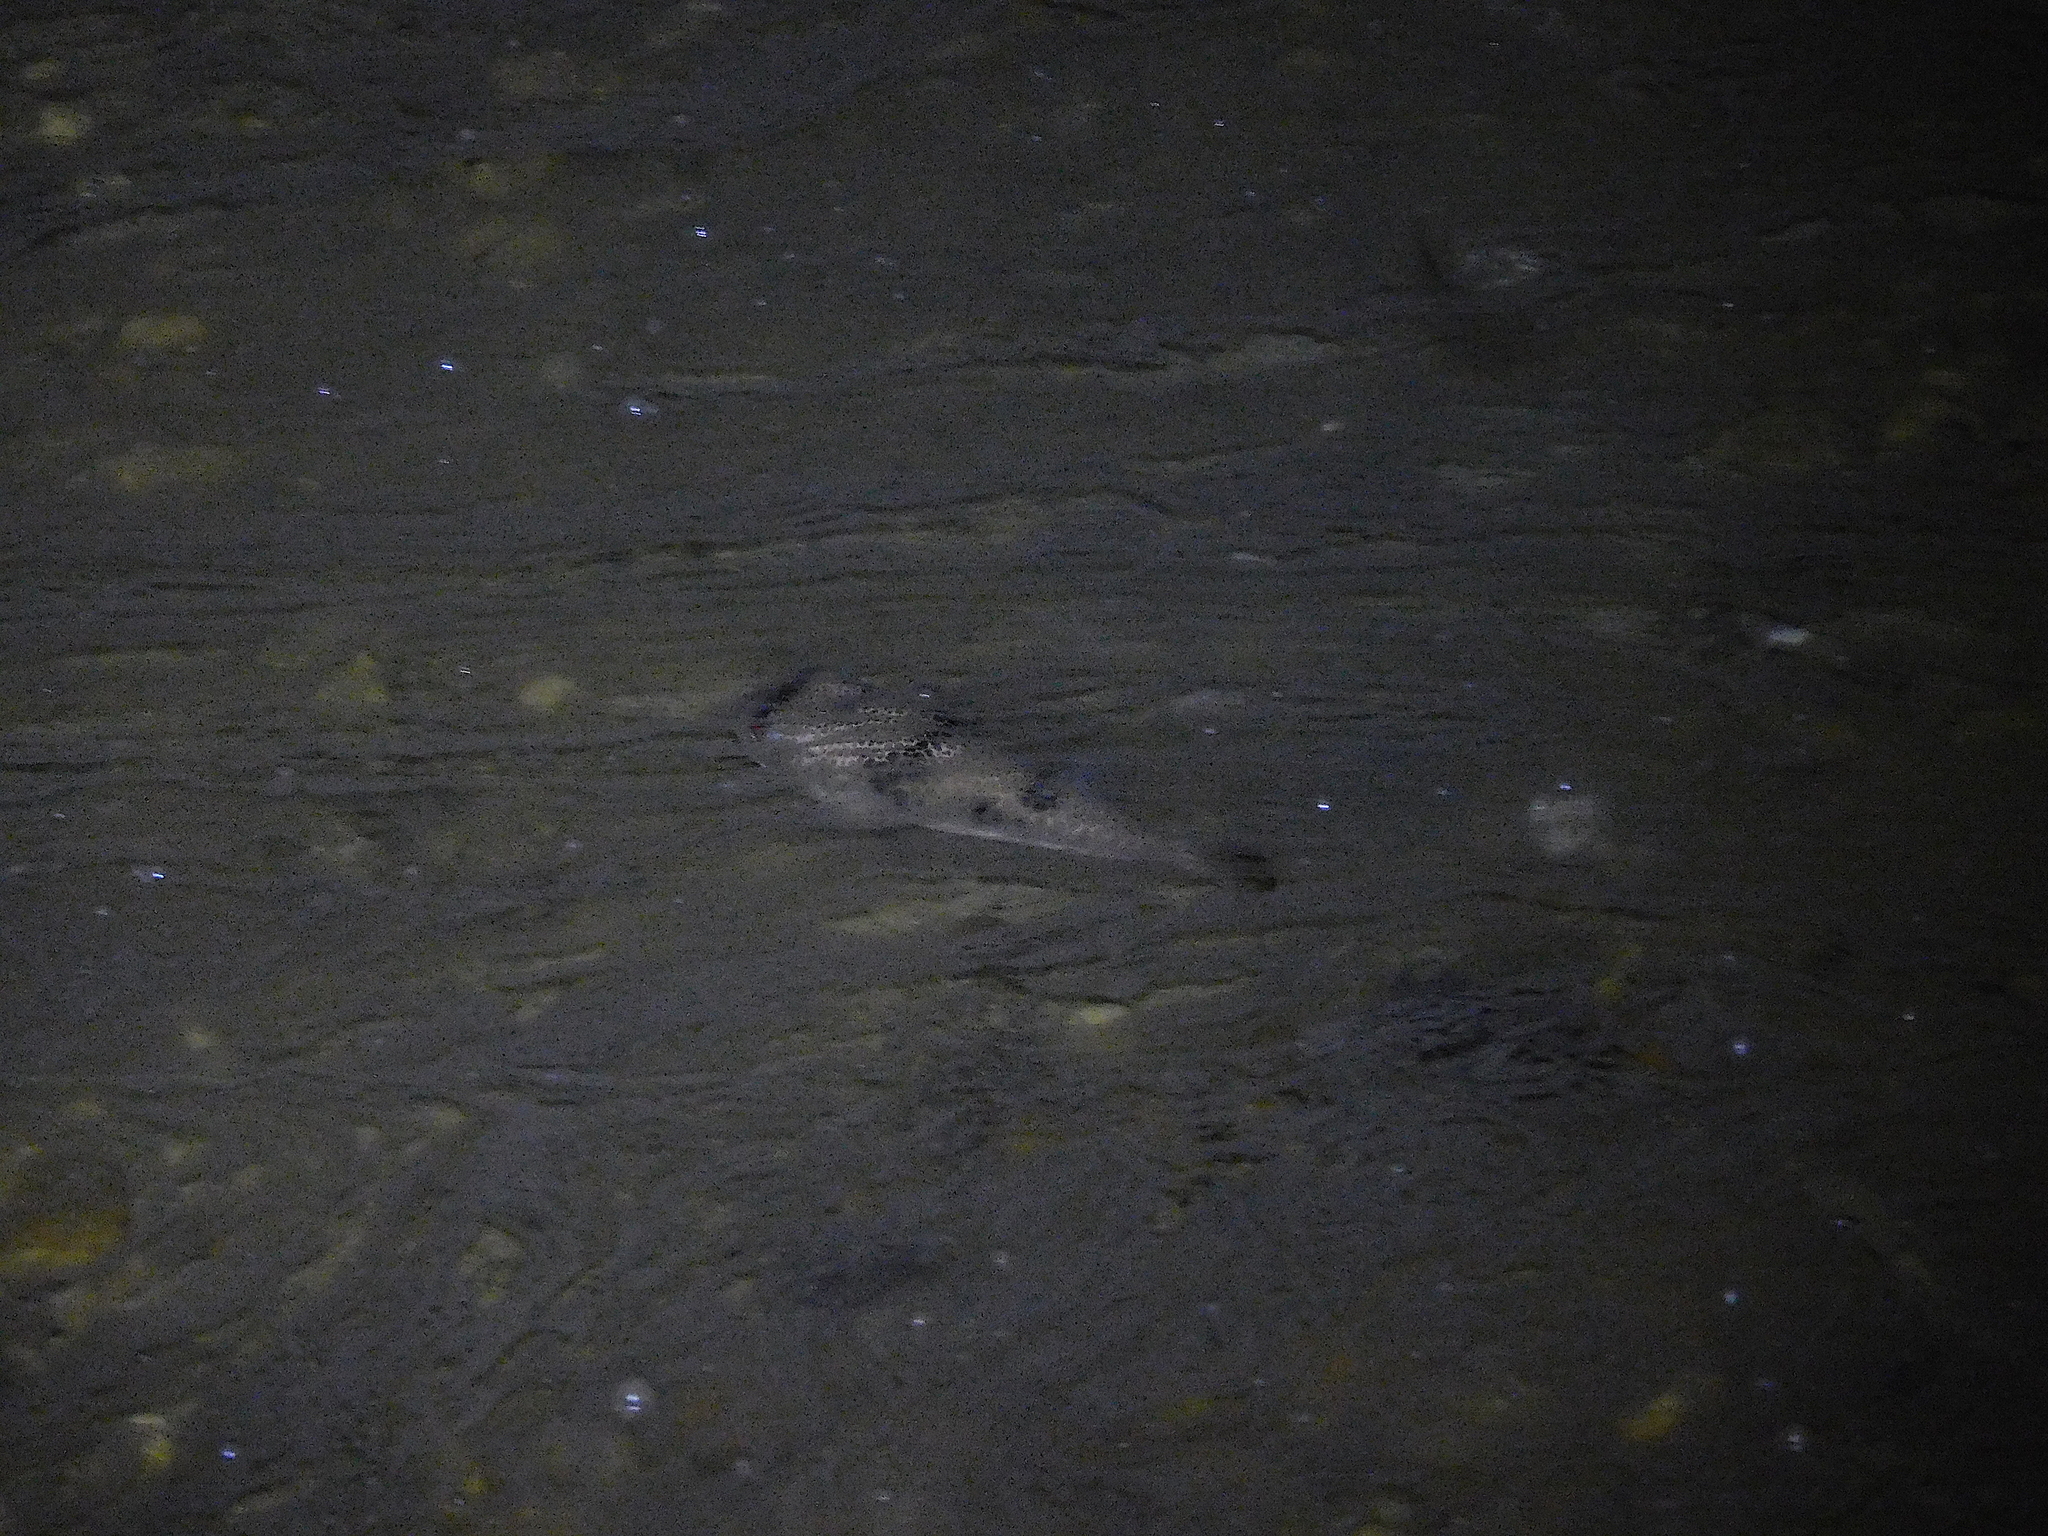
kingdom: Animalia
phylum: Chordata
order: Tetraodontiformes
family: Tetraodontidae
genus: Tetractenos
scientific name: Tetractenos glaber
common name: Smooth toadfish
